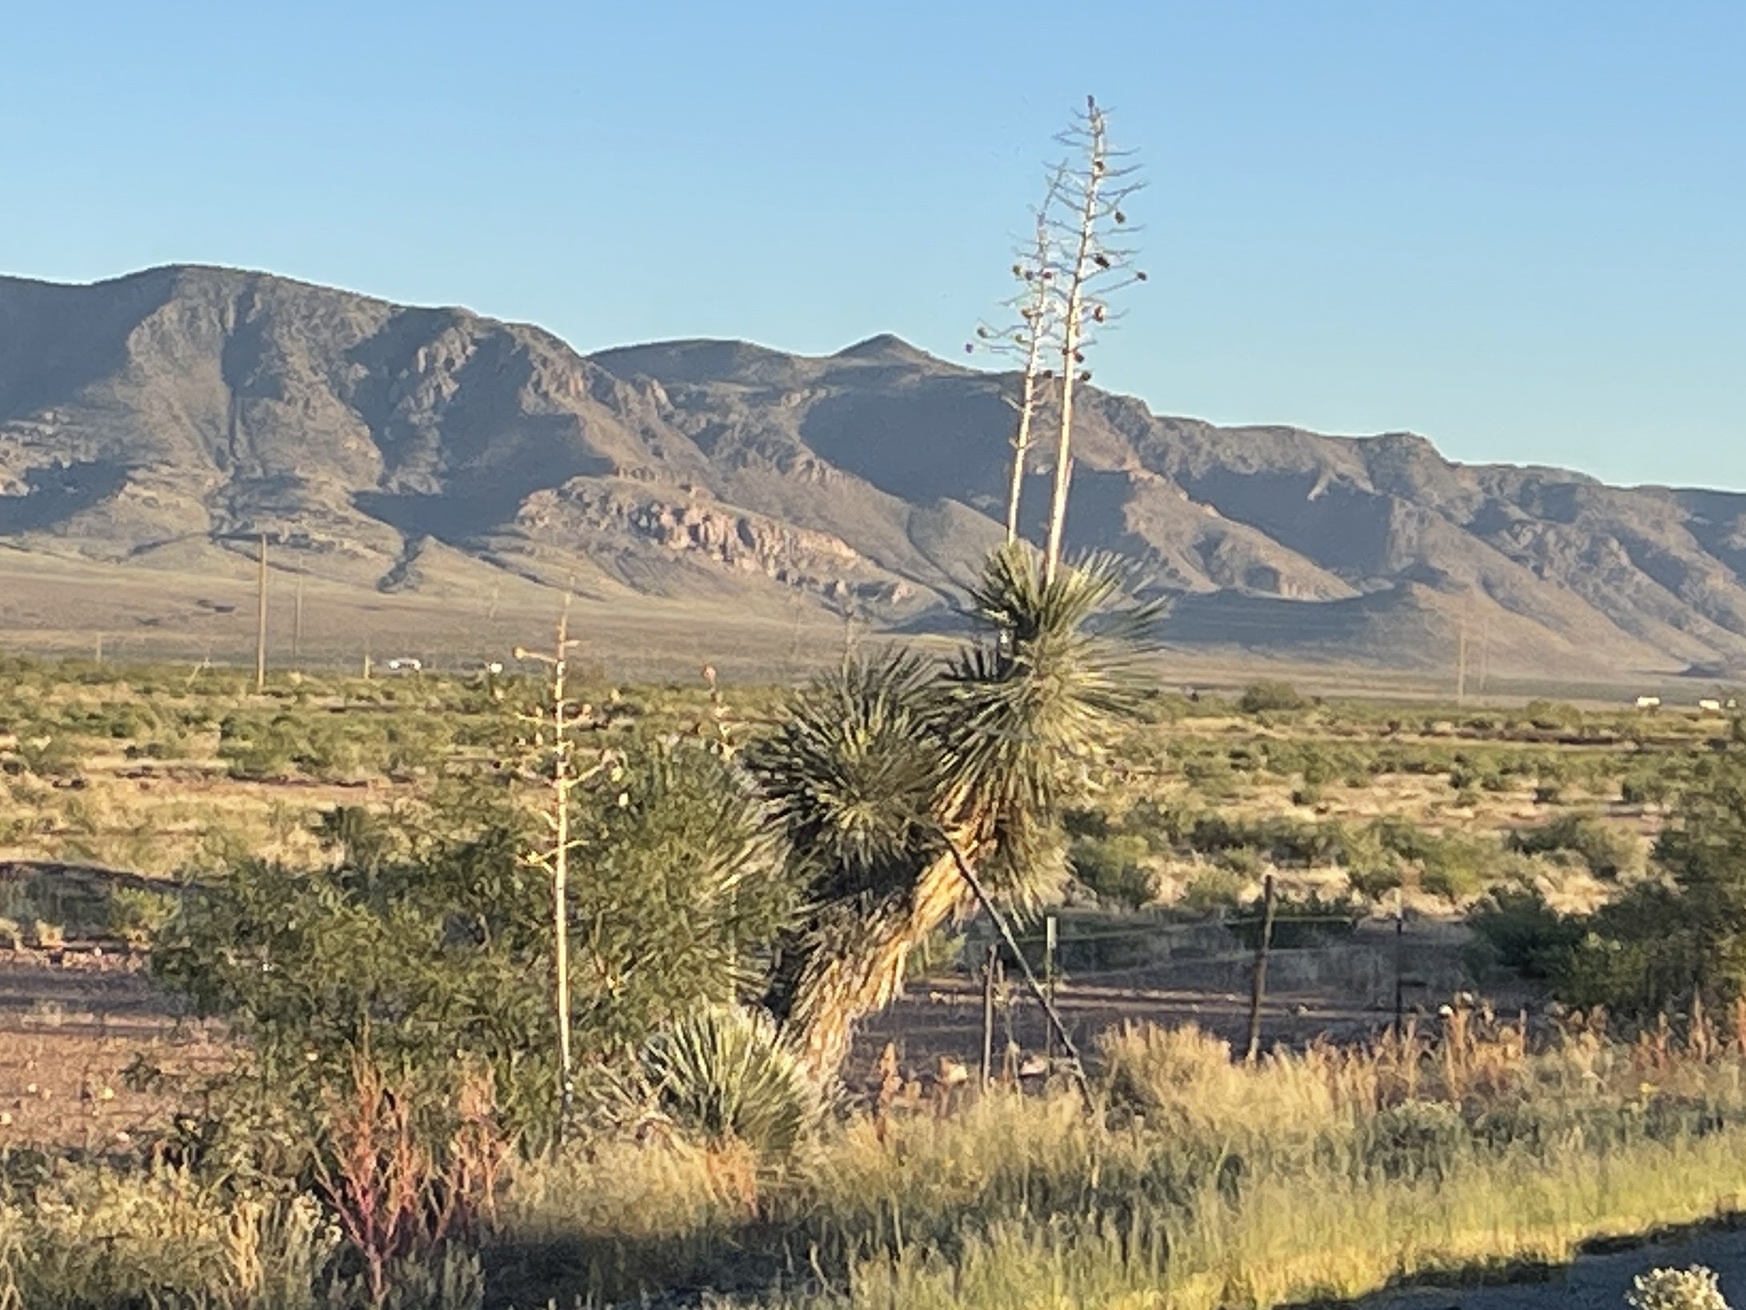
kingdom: Plantae
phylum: Tracheophyta
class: Liliopsida
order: Asparagales
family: Asparagaceae
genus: Yucca
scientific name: Yucca elata
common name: Palmella
